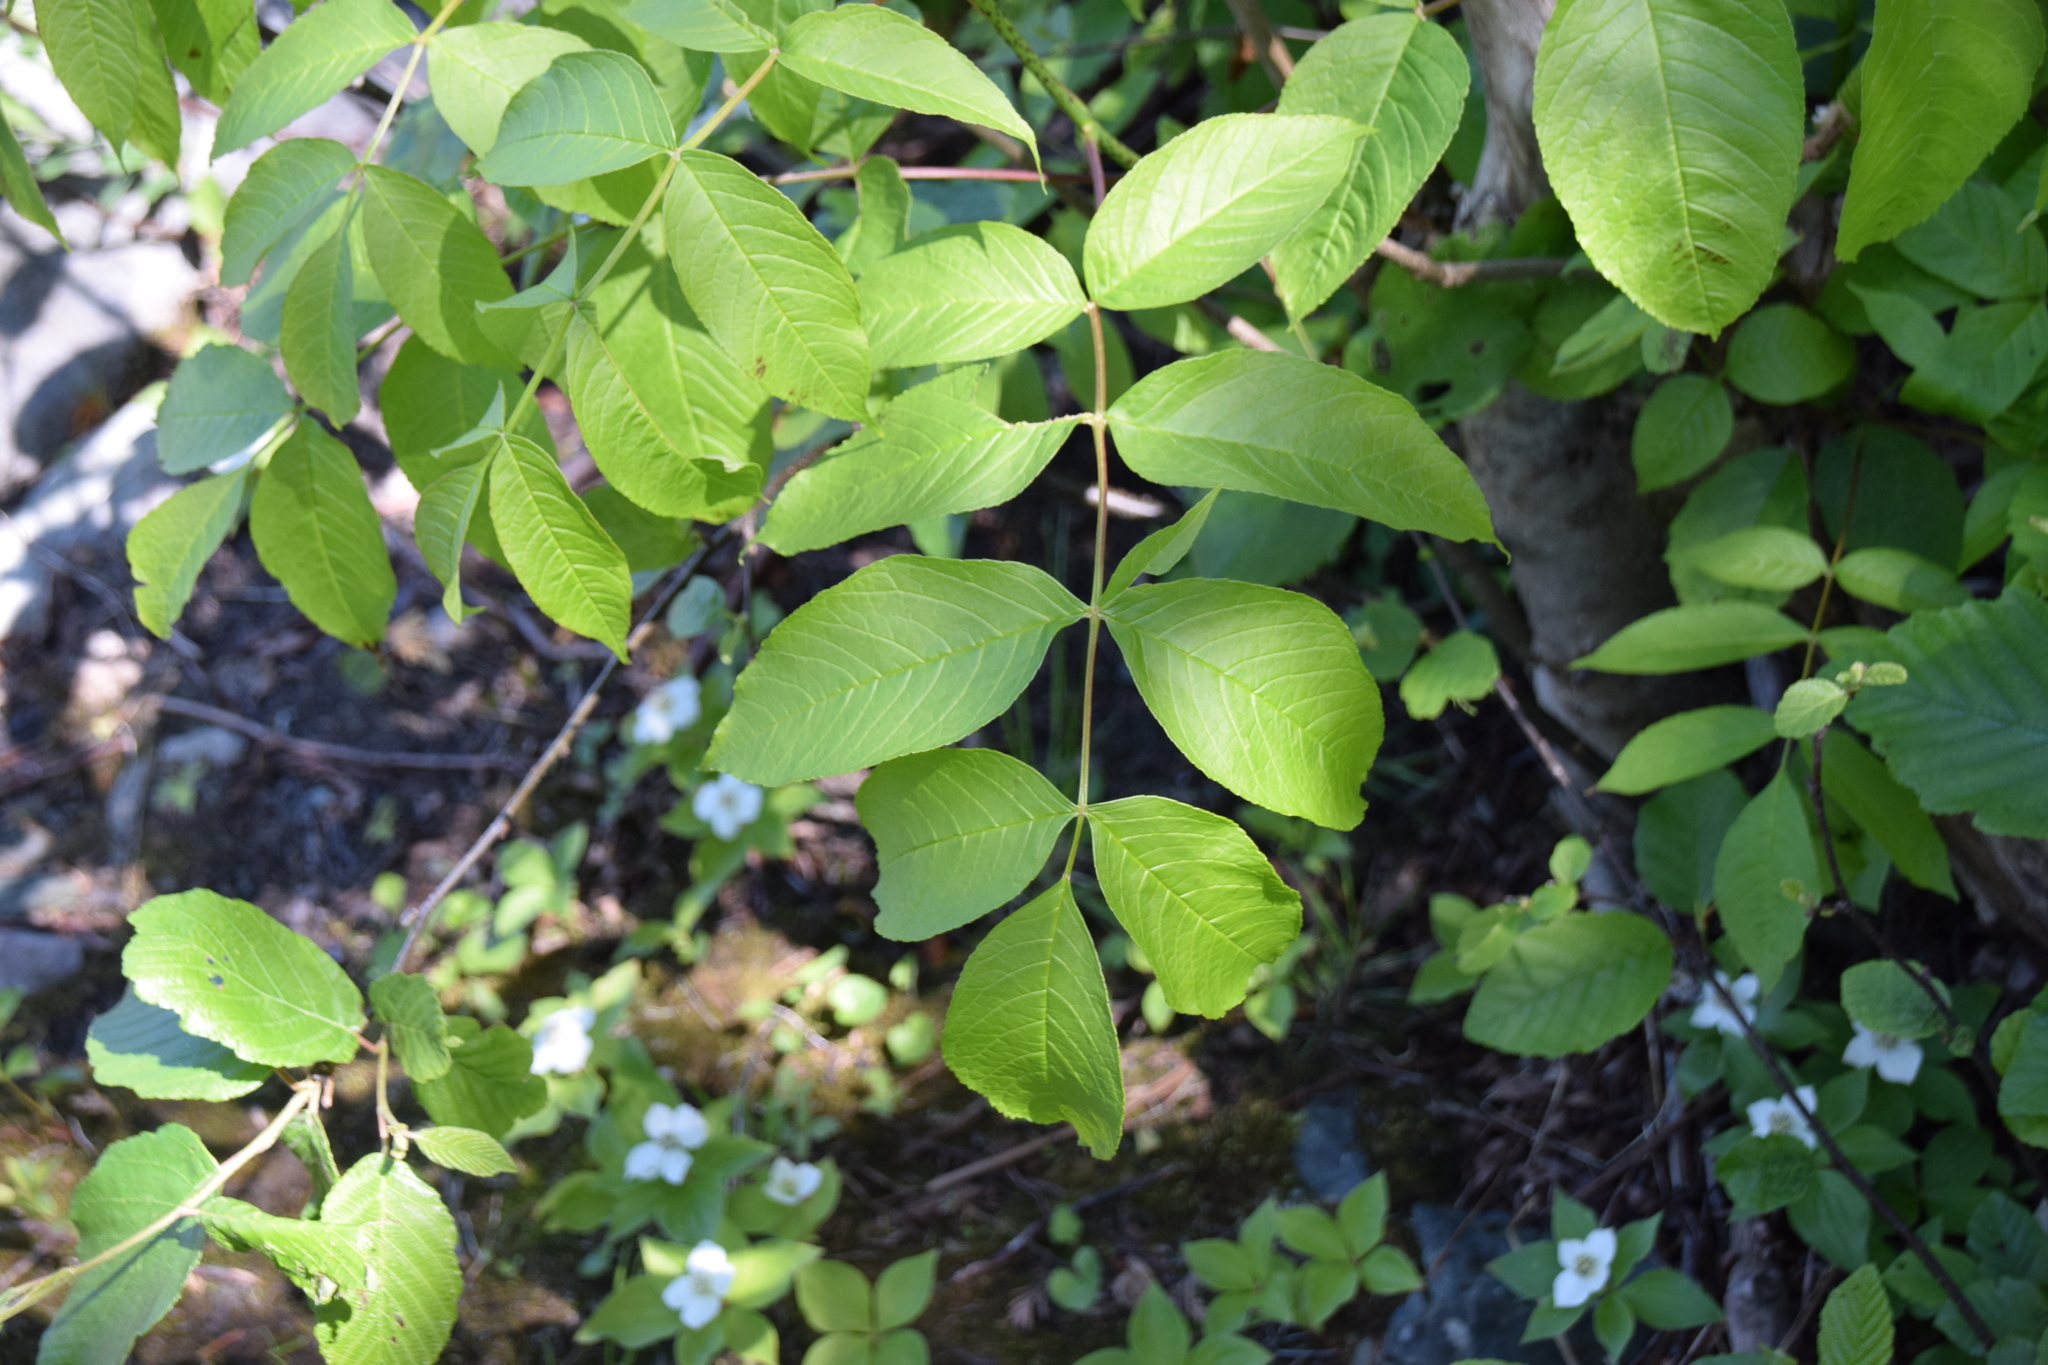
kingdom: Plantae
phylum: Tracheophyta
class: Magnoliopsida
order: Lamiales
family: Oleaceae
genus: Fraxinus
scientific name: Fraxinus nigra
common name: Black ash
